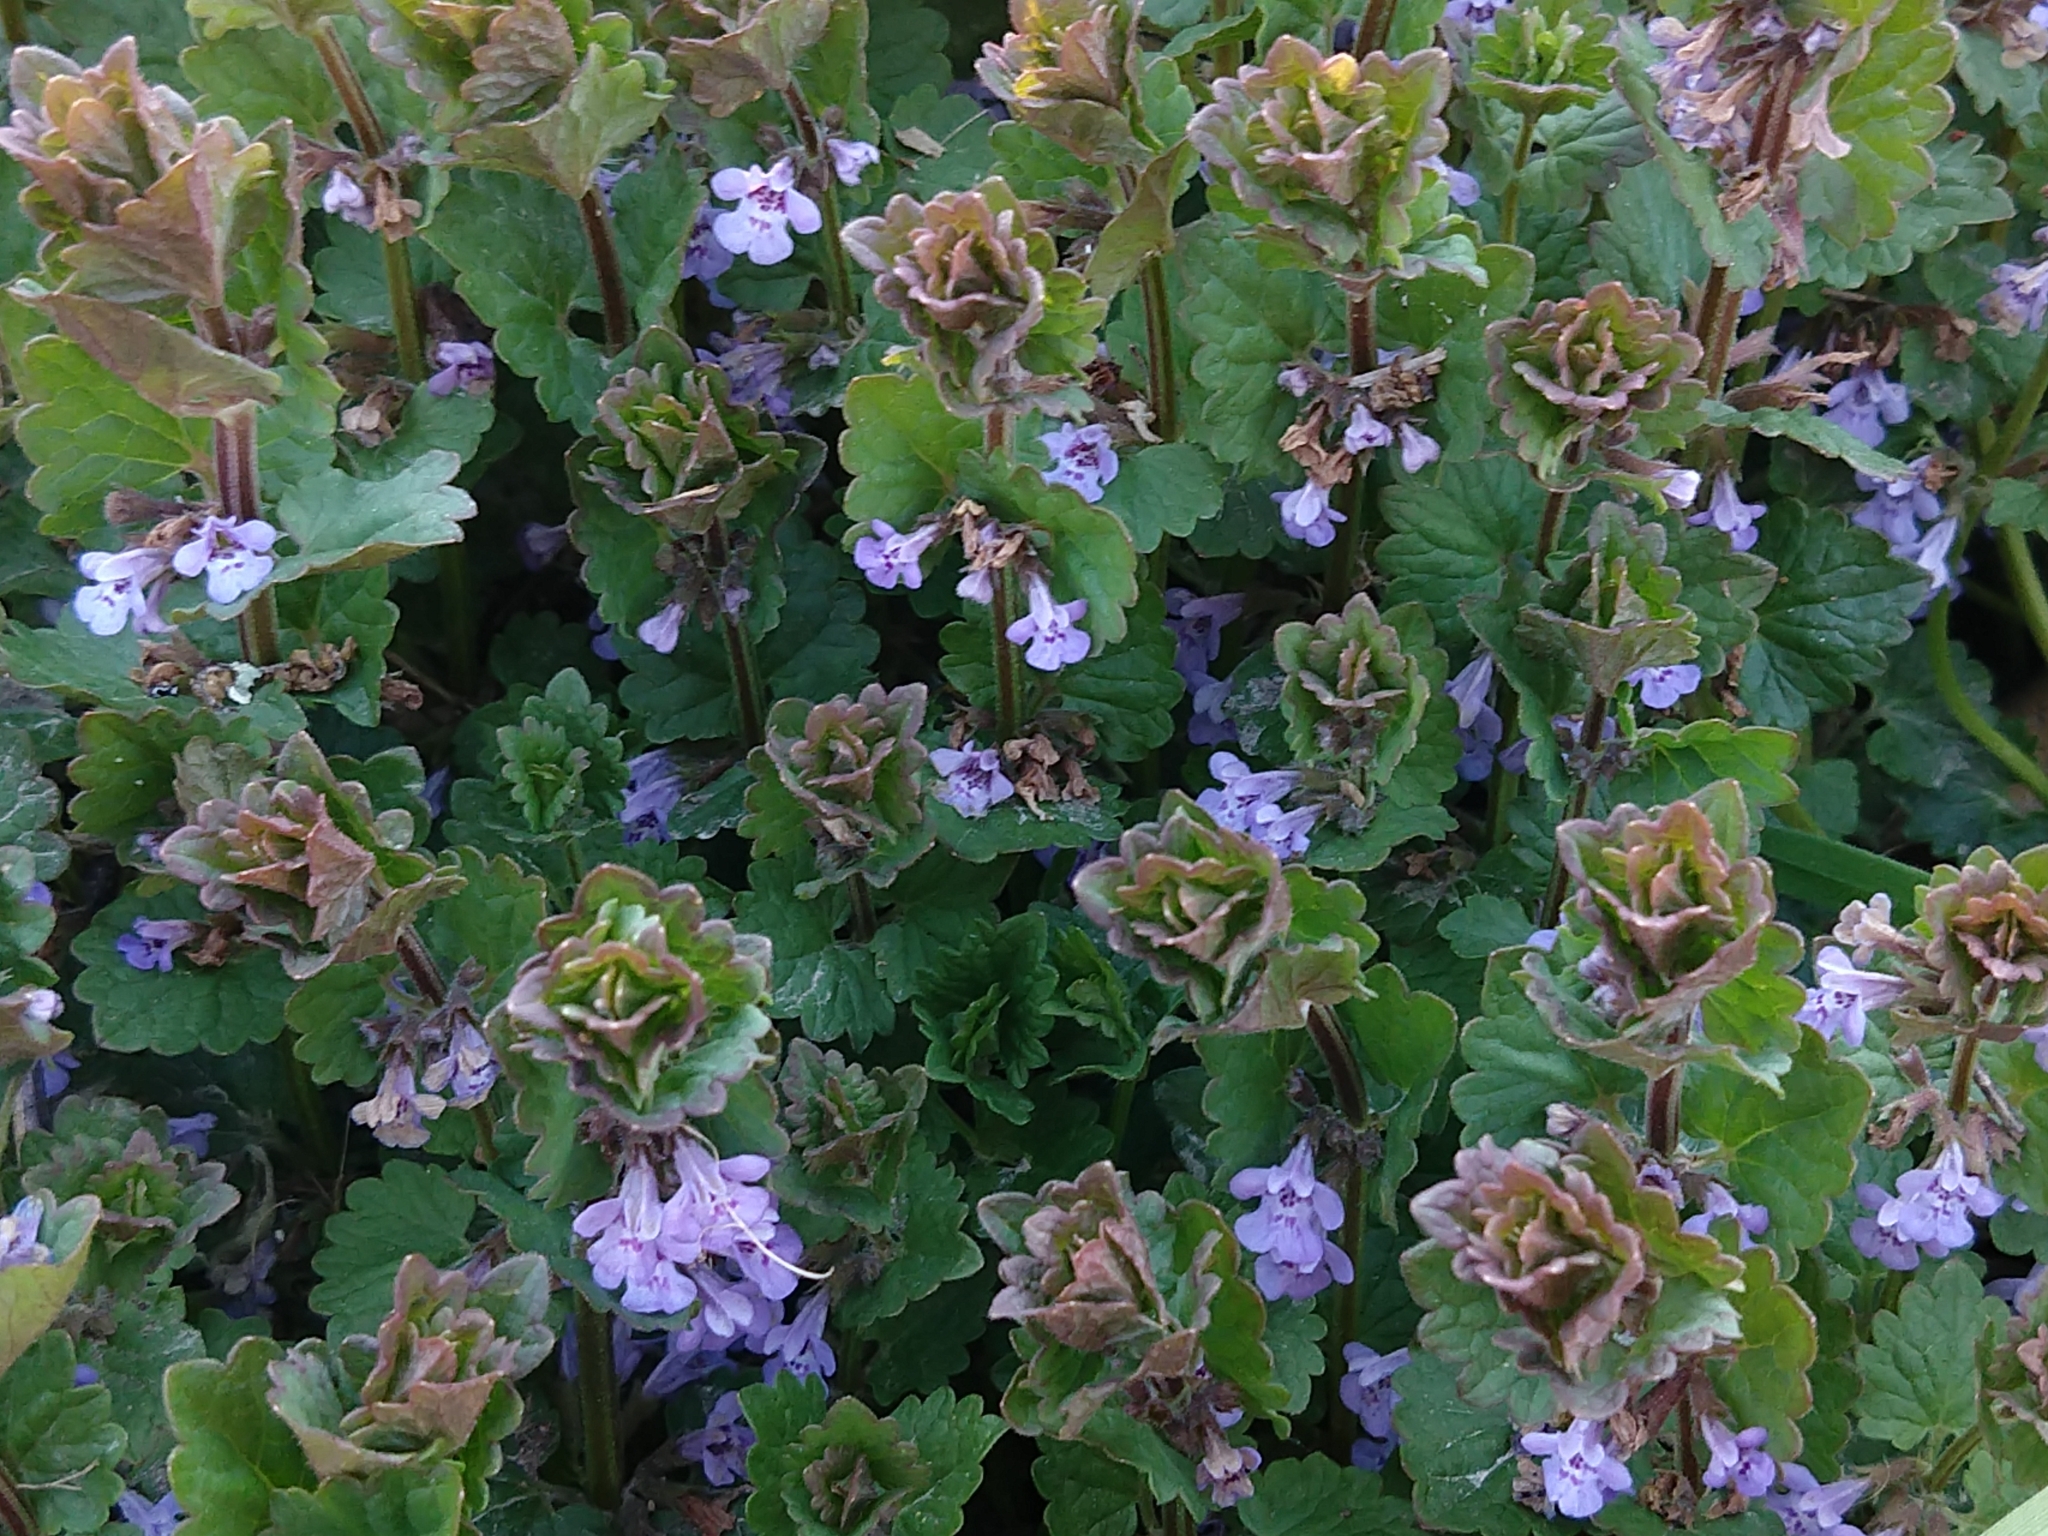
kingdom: Plantae
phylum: Tracheophyta
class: Magnoliopsida
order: Lamiales
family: Lamiaceae
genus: Glechoma
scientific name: Glechoma hederacea
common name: Ground ivy
